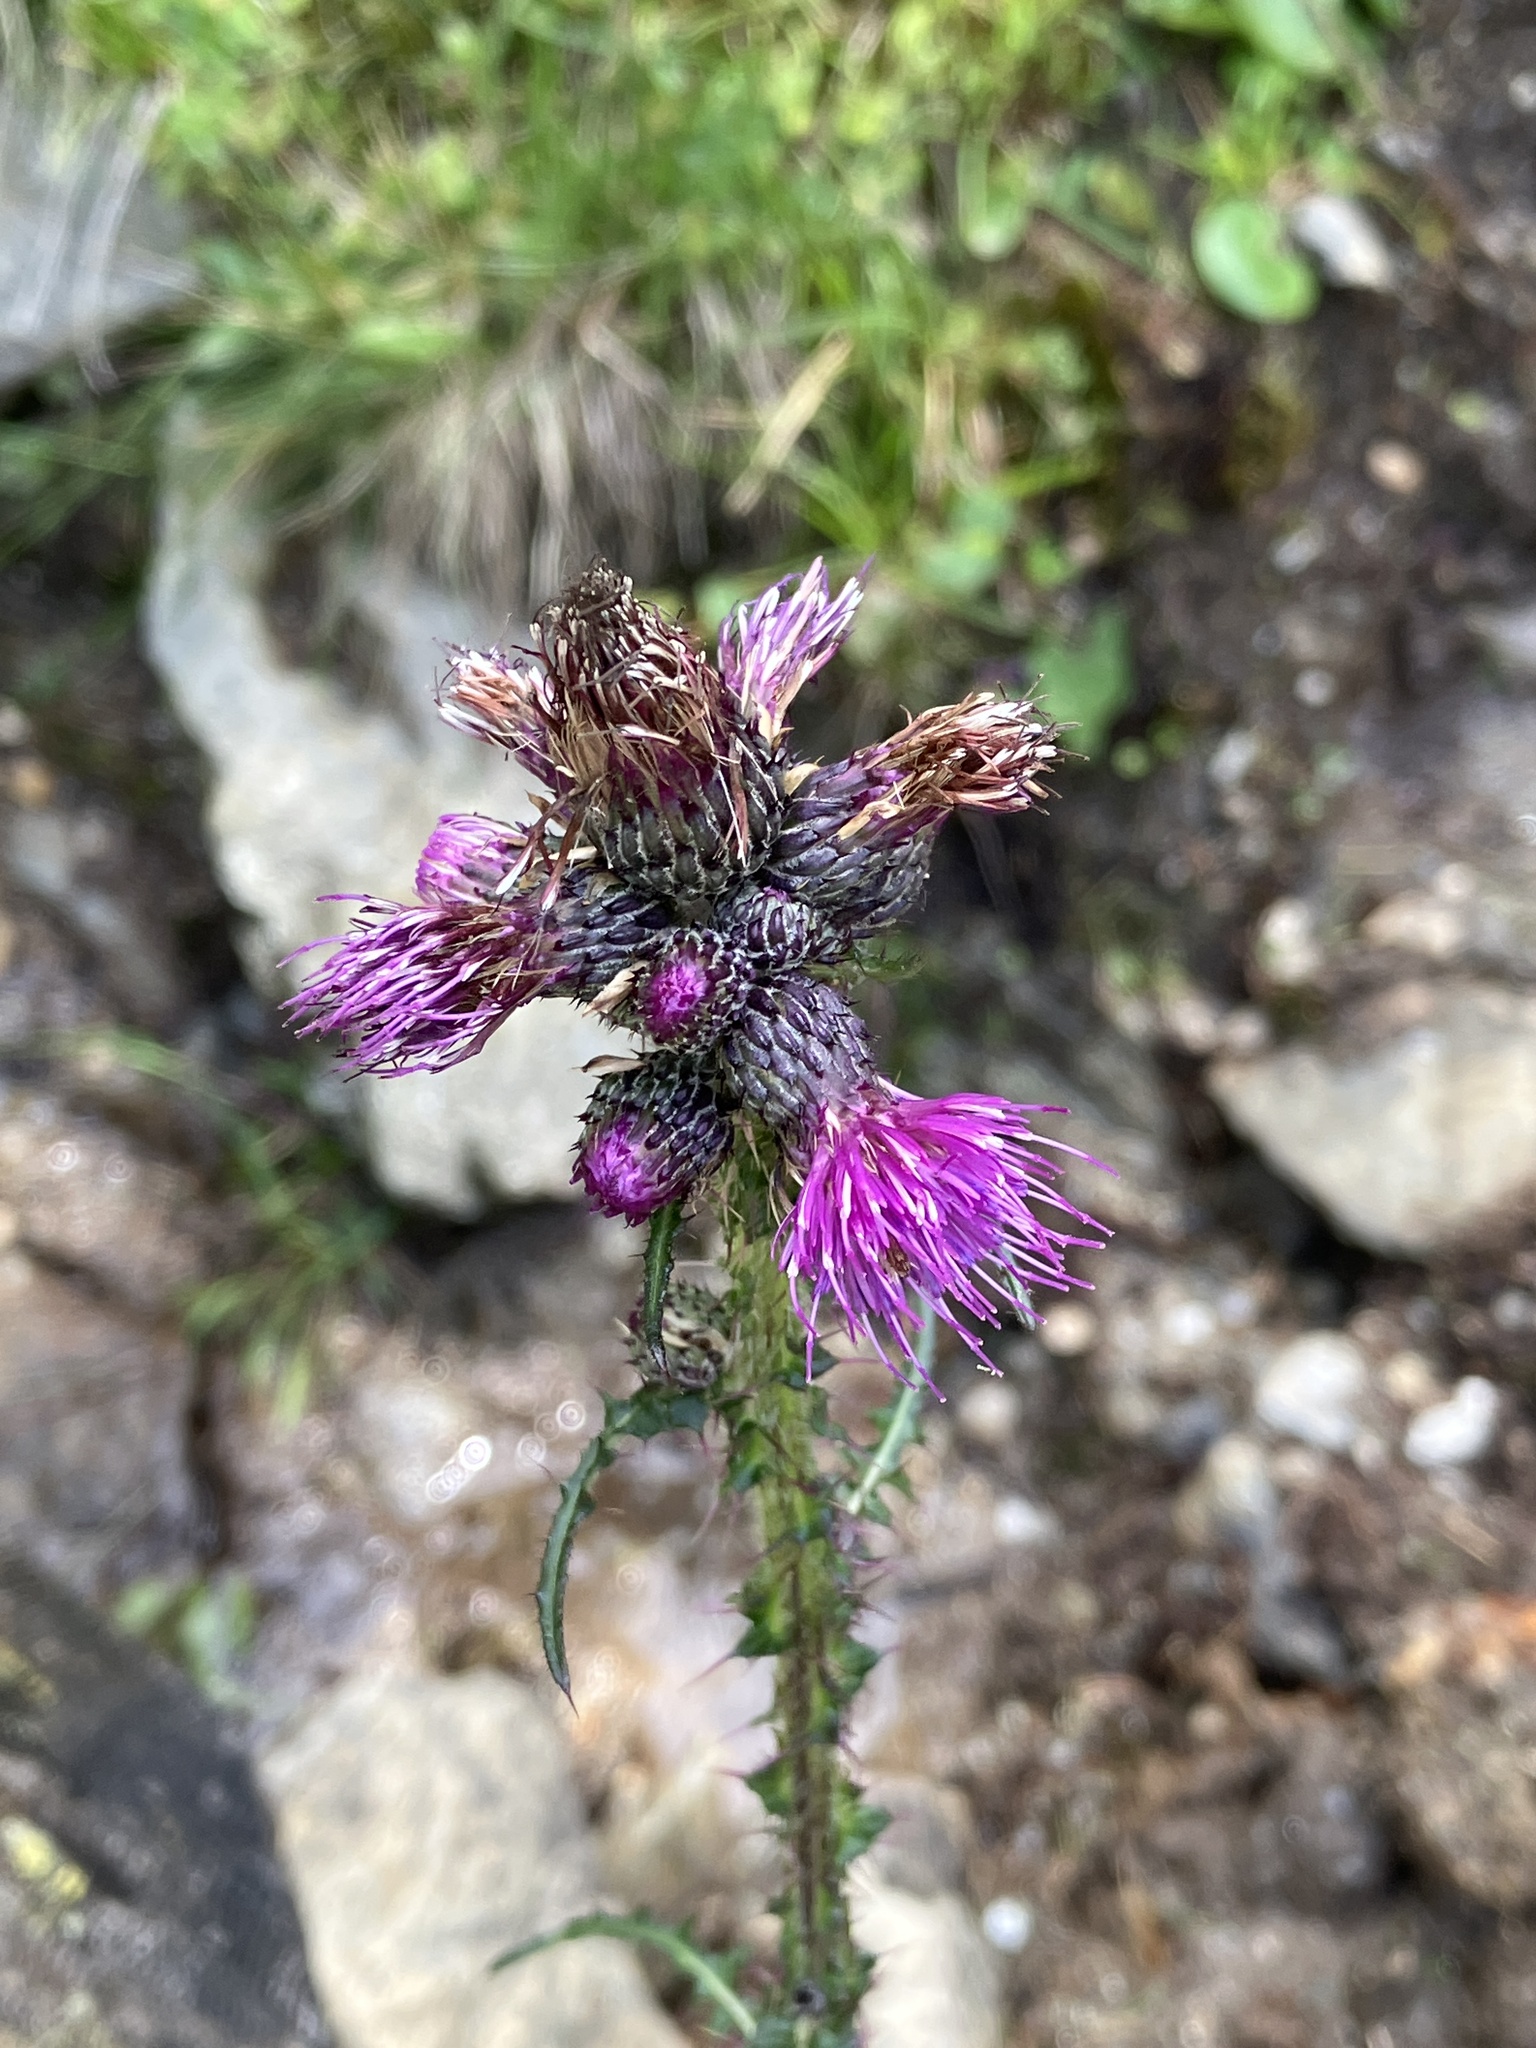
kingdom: Plantae
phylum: Tracheophyta
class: Magnoliopsida
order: Asterales
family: Asteraceae
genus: Cirsium
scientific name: Cirsium palustre
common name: Marsh thistle
